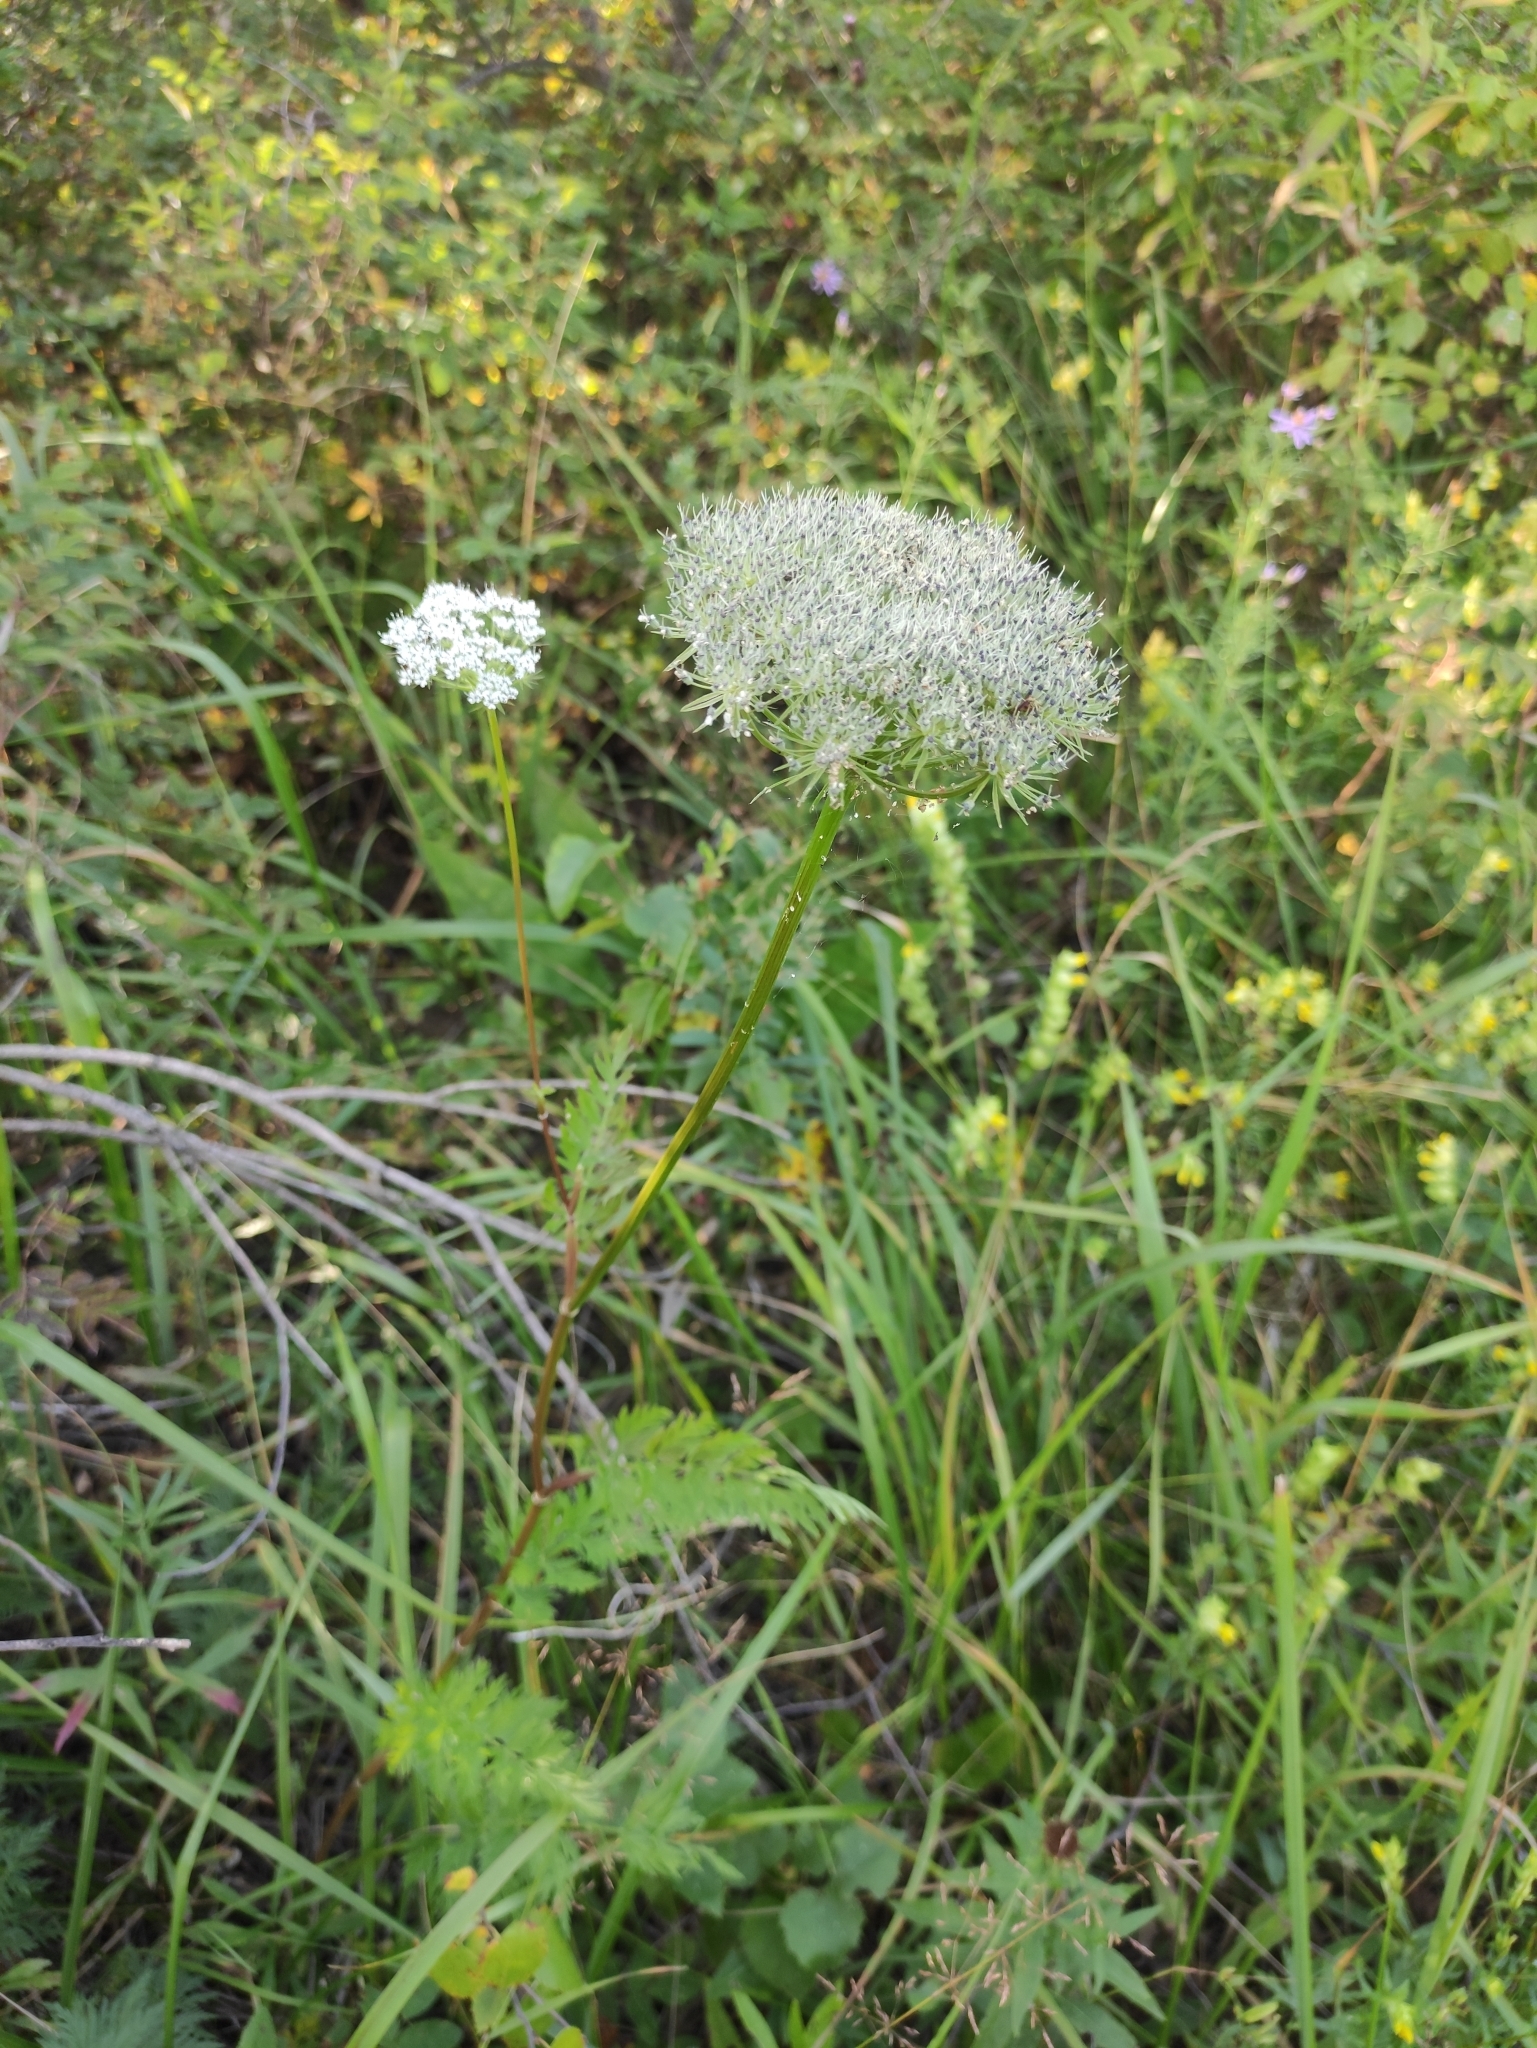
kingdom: Plantae
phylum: Tracheophyta
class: Magnoliopsida
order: Apiales
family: Apiaceae
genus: Seseli
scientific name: Seseli condensatum
